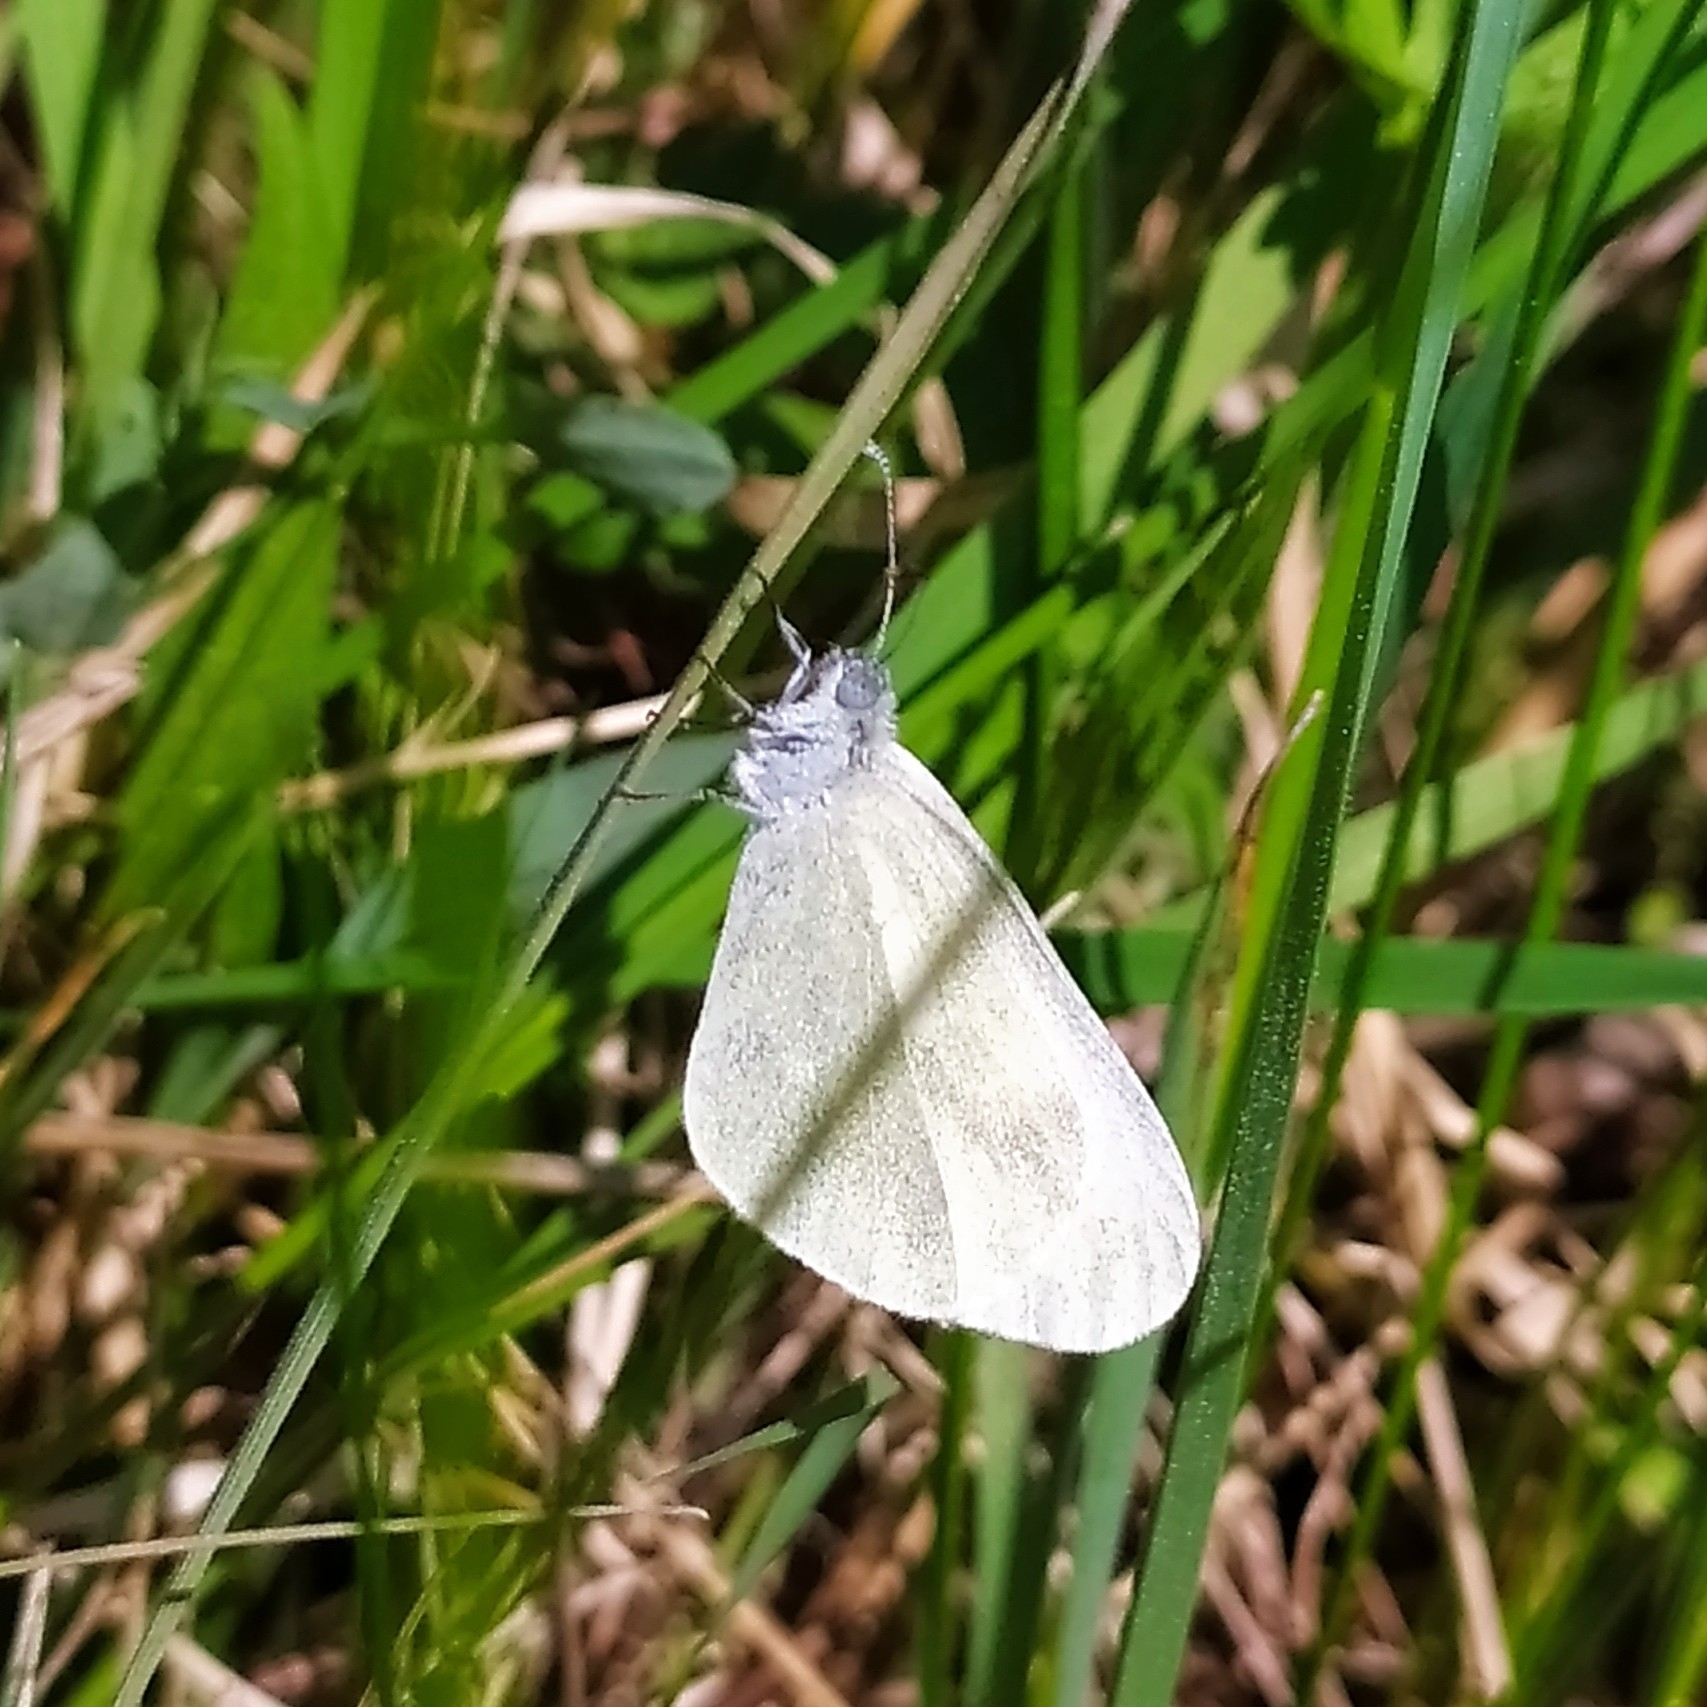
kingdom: Animalia
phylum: Arthropoda
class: Insecta
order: Lepidoptera
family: Pieridae
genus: Leptidea
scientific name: Leptidea
